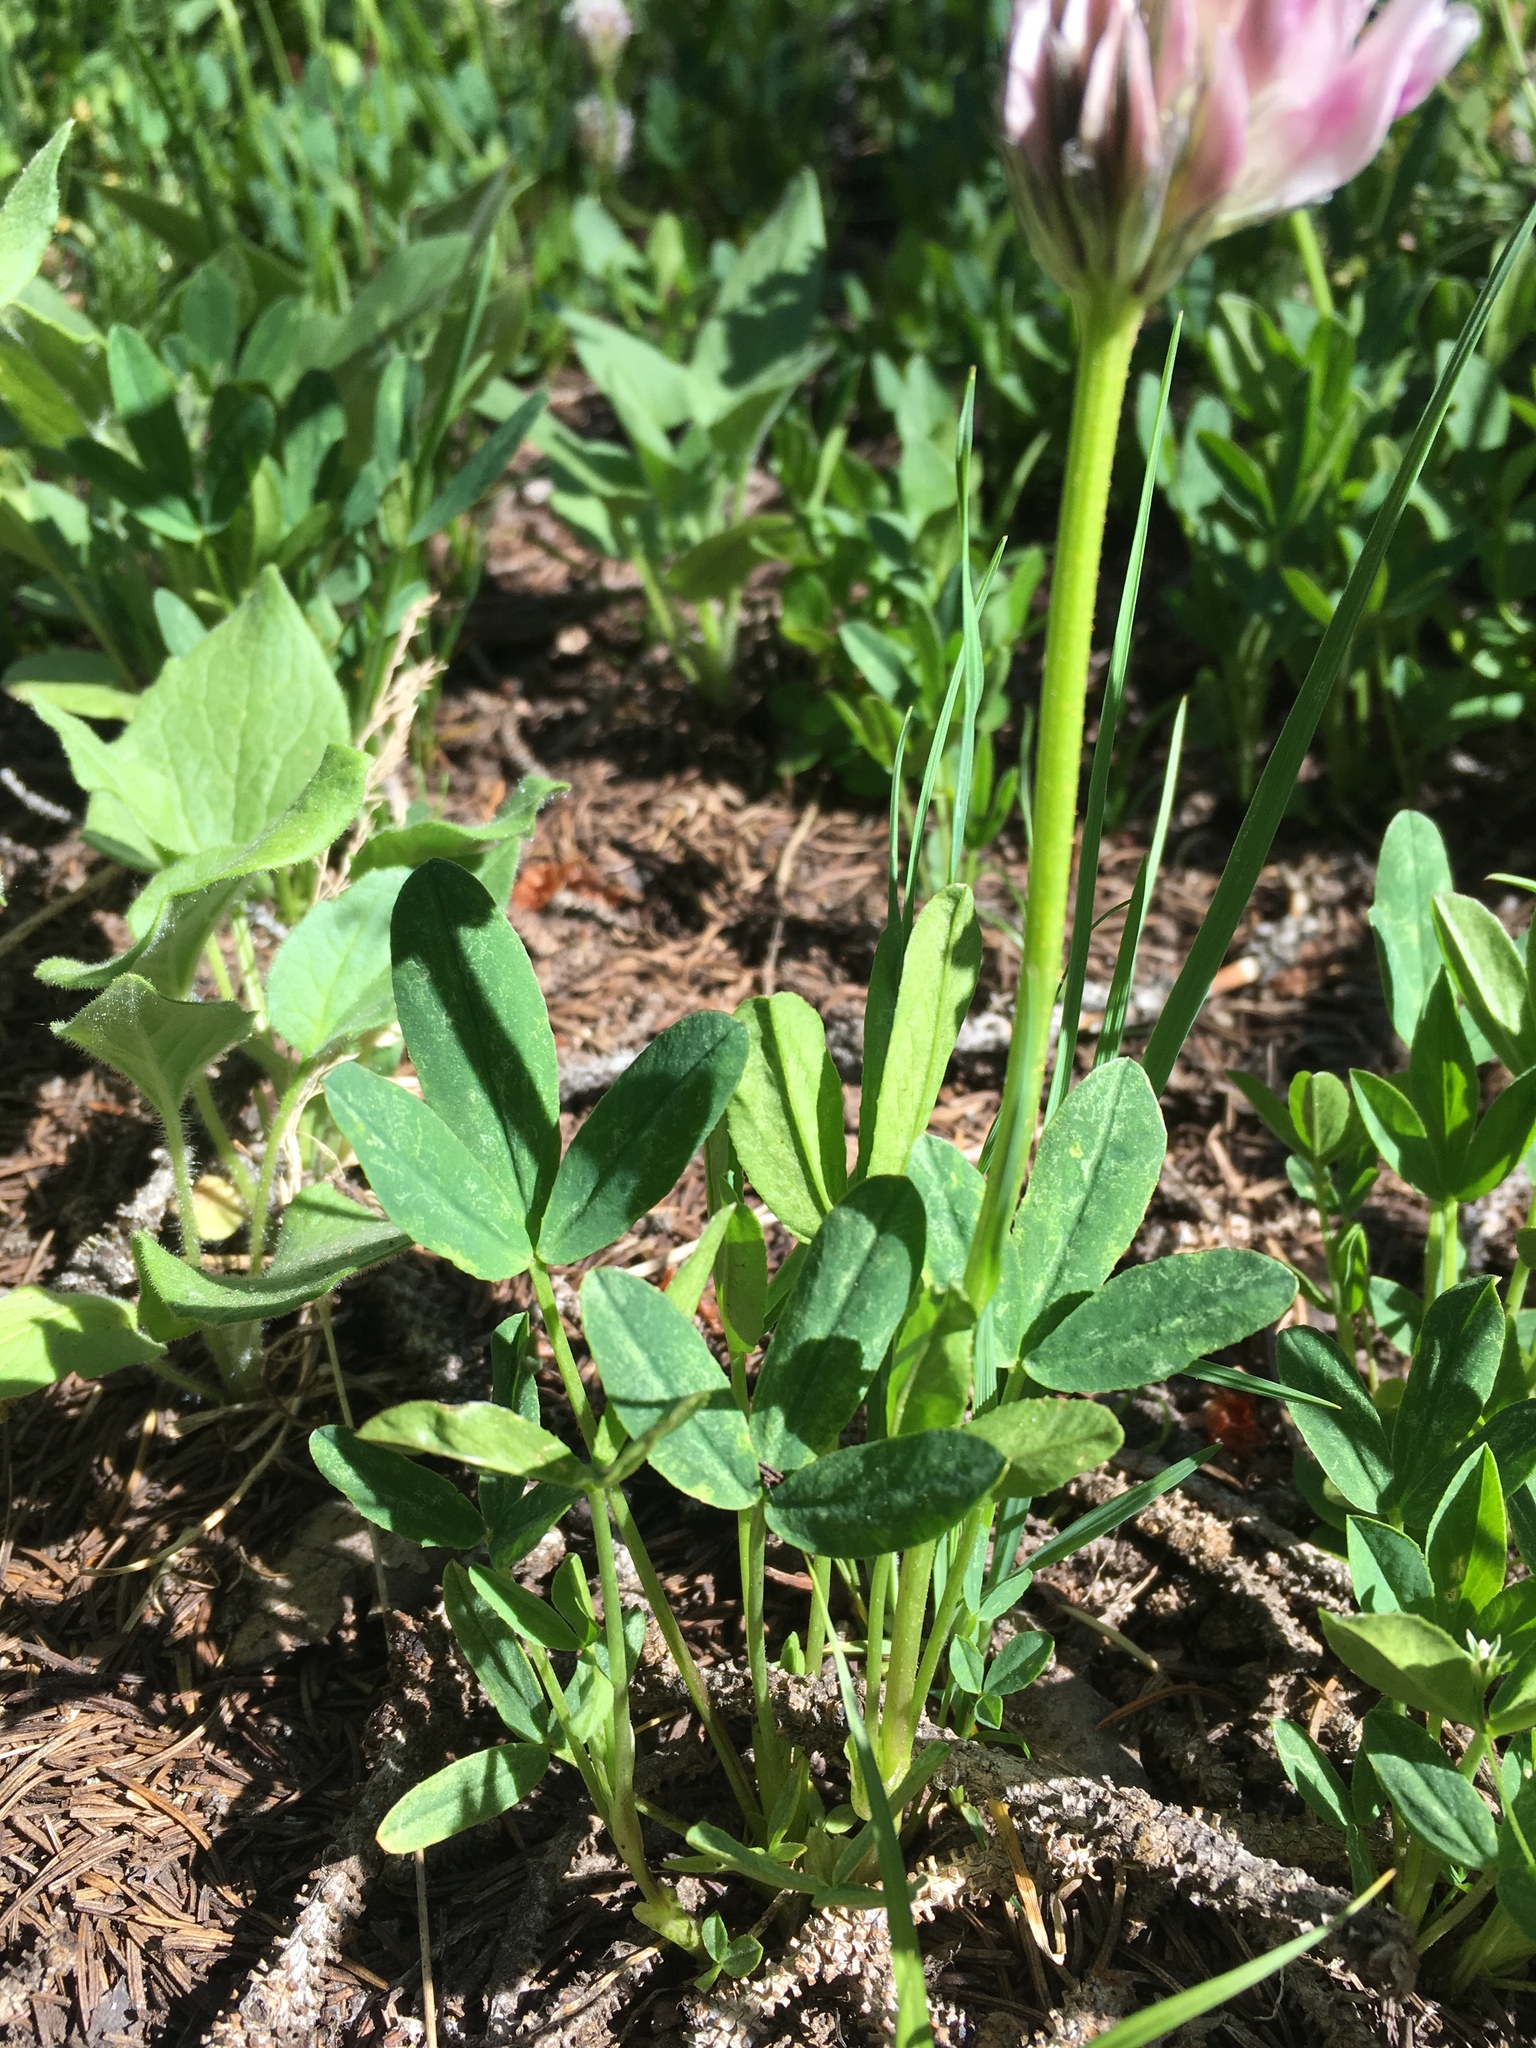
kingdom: Plantae
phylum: Tracheophyta
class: Magnoliopsida
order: Fabales
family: Fabaceae
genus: Trifolium
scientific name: Trifolium parryi
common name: Parry's clover
